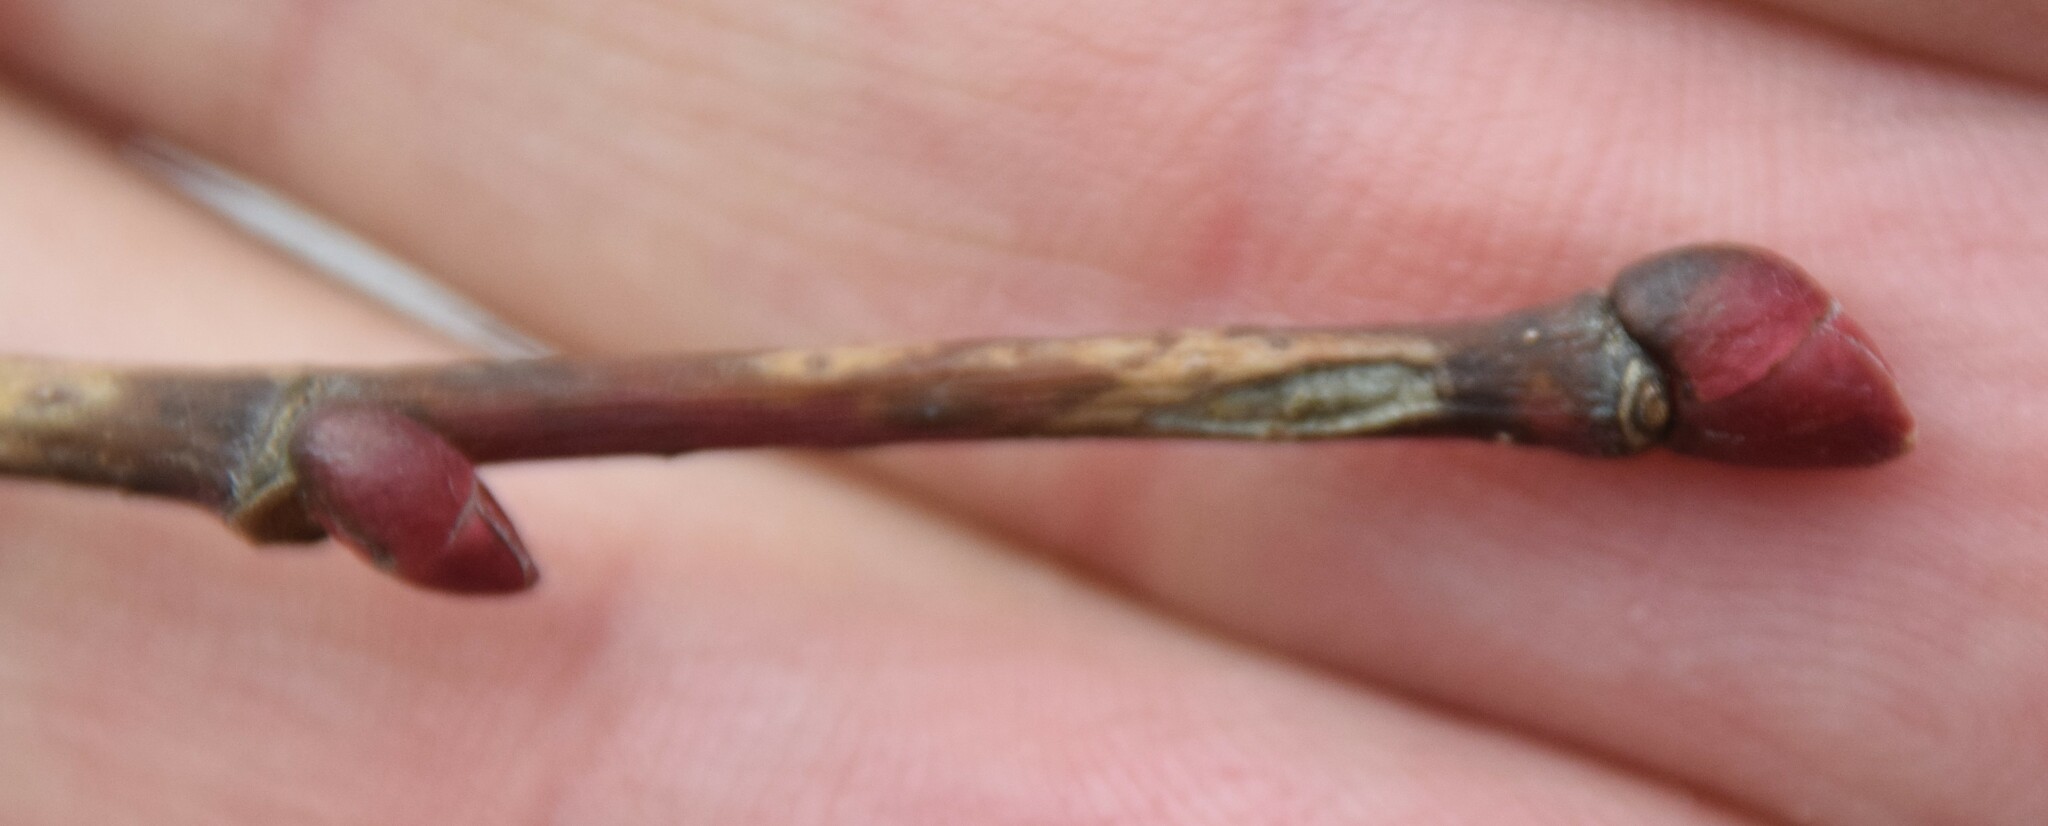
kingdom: Plantae
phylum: Tracheophyta
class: Magnoliopsida
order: Malvales
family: Malvaceae
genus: Tilia
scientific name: Tilia americana
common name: Basswood
